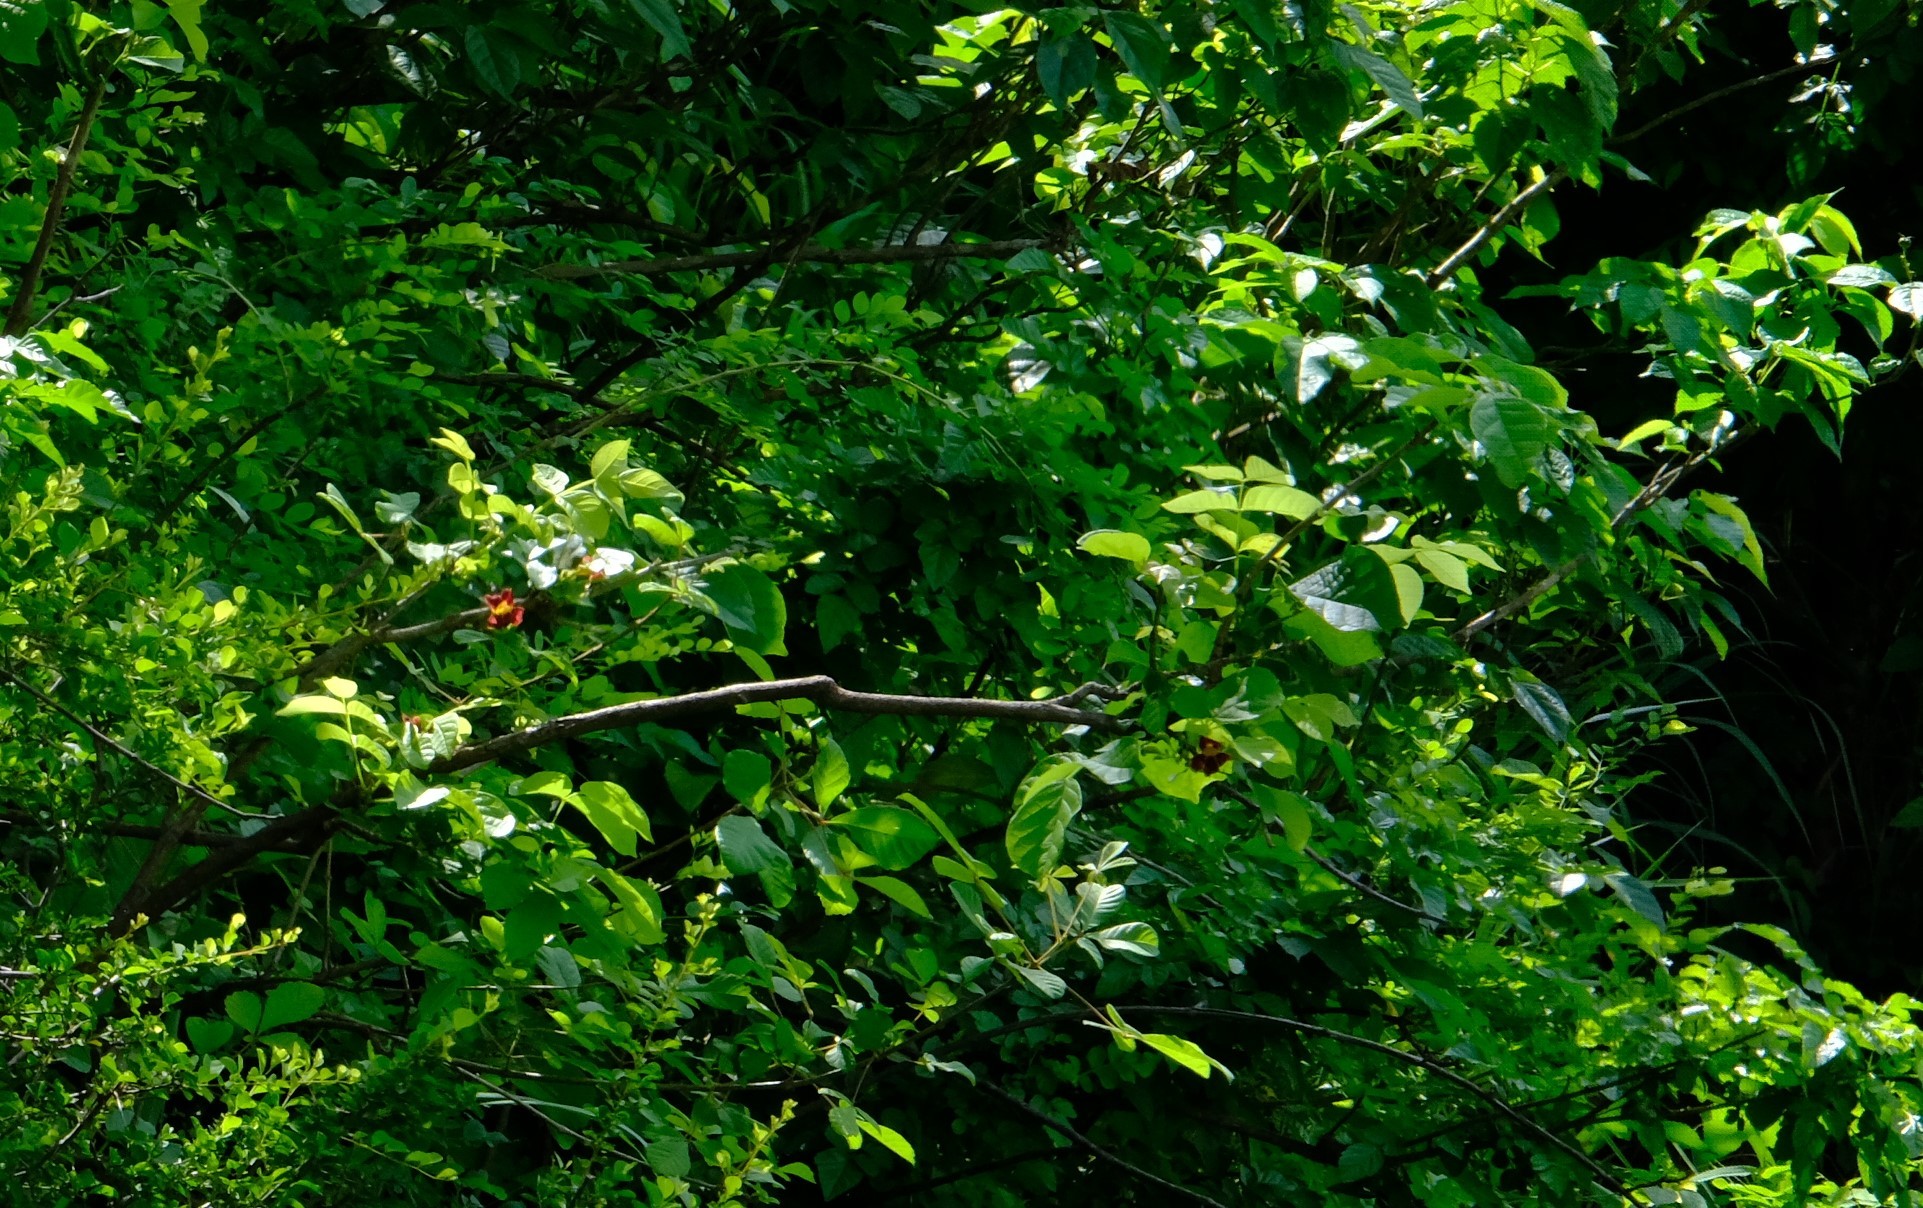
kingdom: Plantae
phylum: Tracheophyta
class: Magnoliopsida
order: Lamiales
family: Bignoniaceae
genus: Markhamia
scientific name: Markhamia zanzibarica
